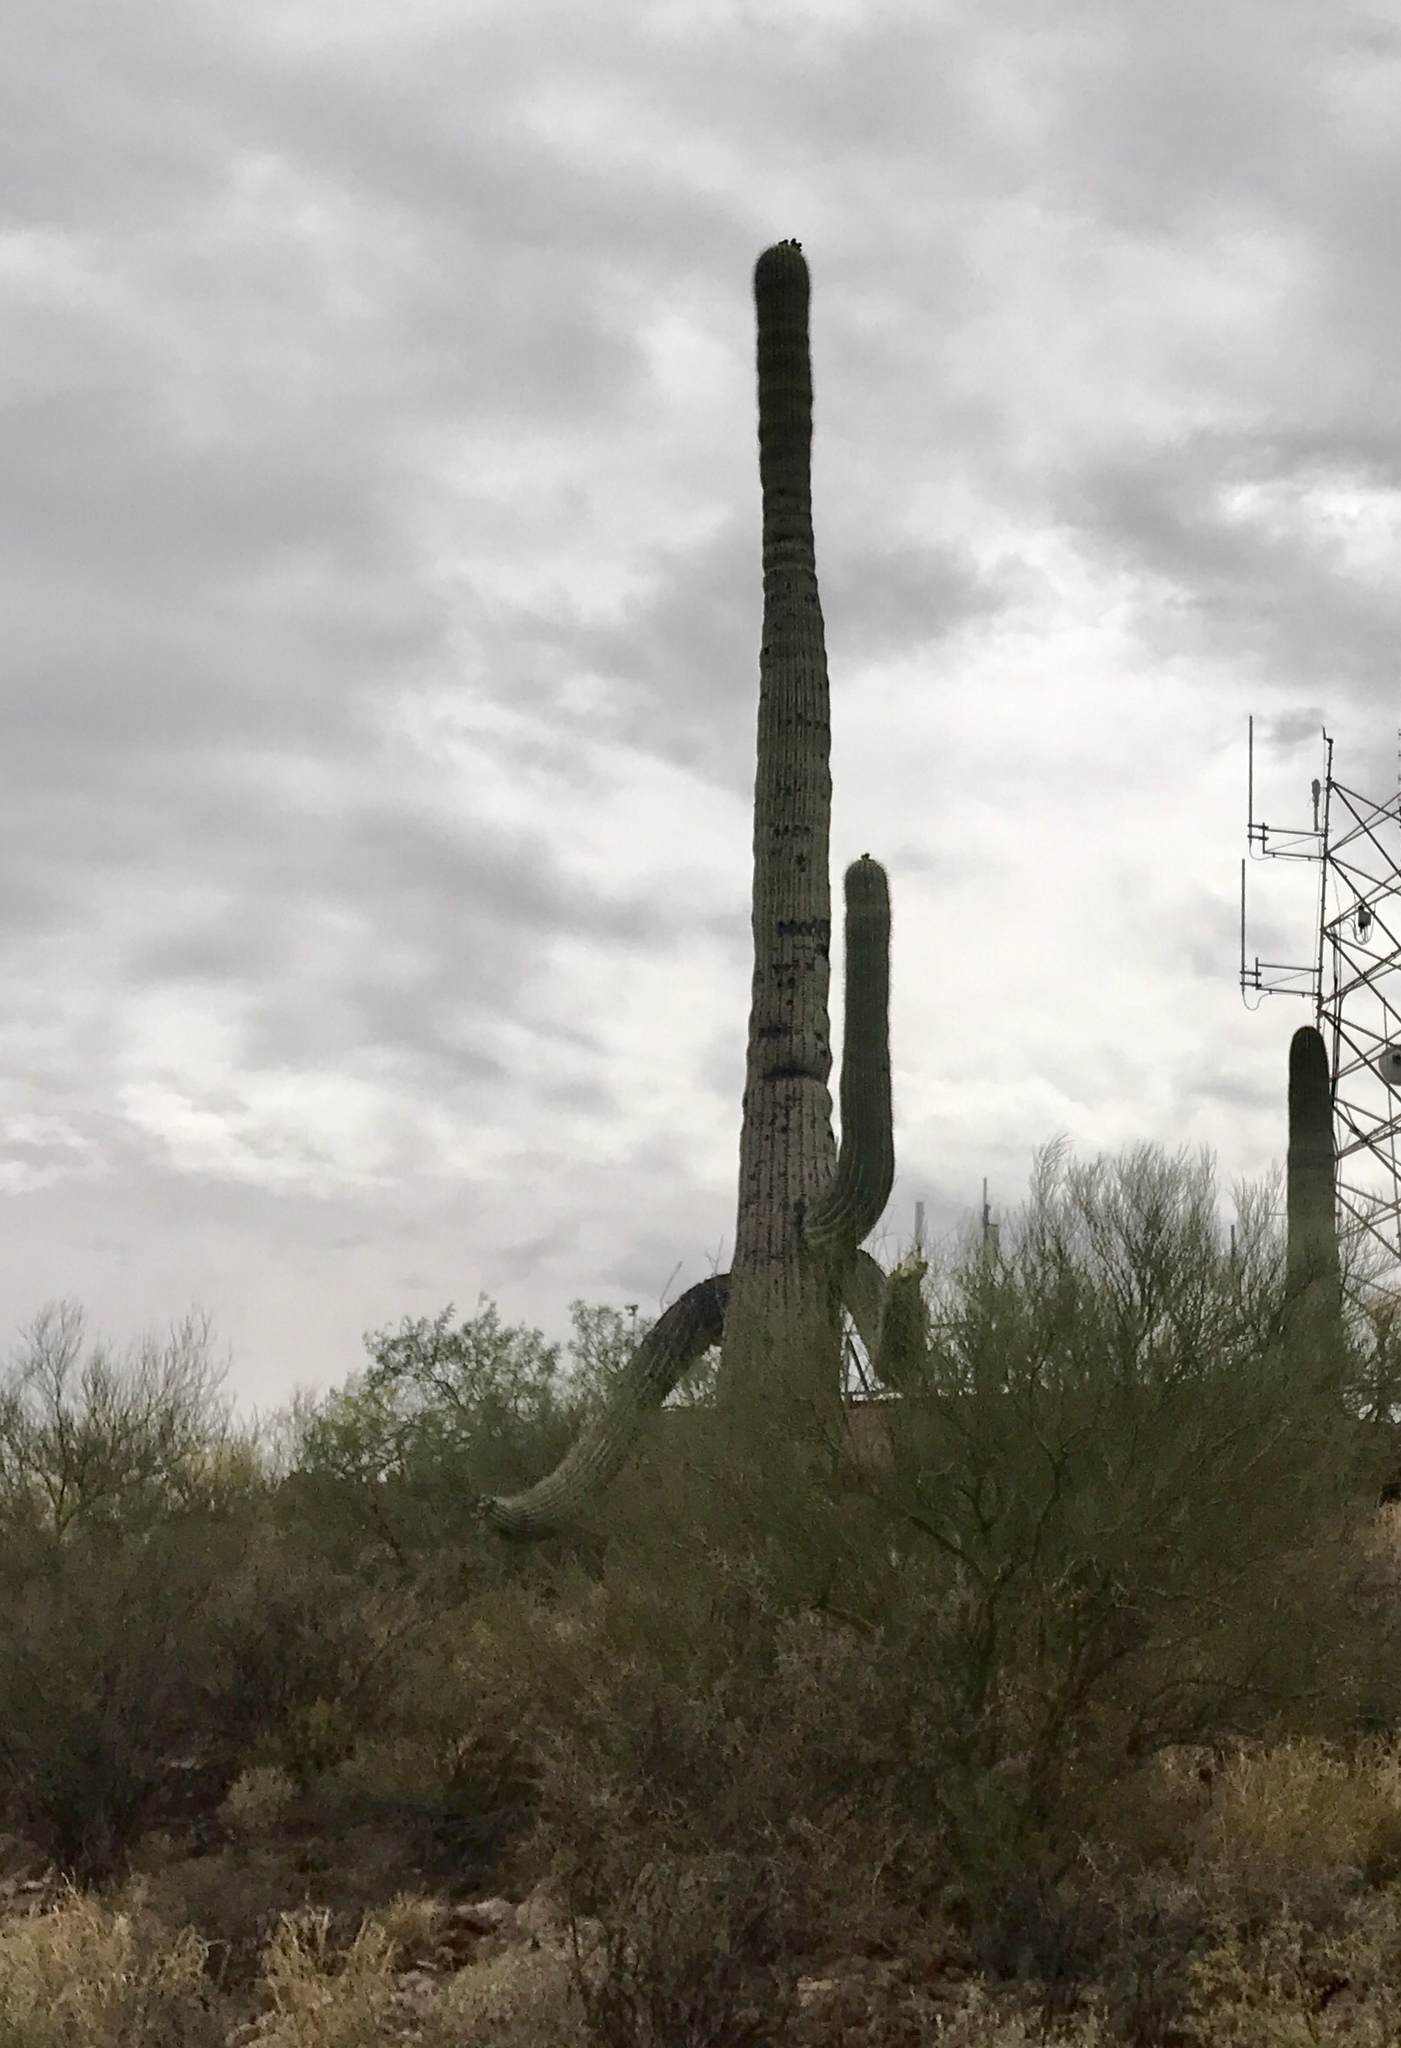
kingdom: Plantae
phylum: Tracheophyta
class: Magnoliopsida
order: Caryophyllales
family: Cactaceae
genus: Carnegiea
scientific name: Carnegiea gigantea
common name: Saguaro
